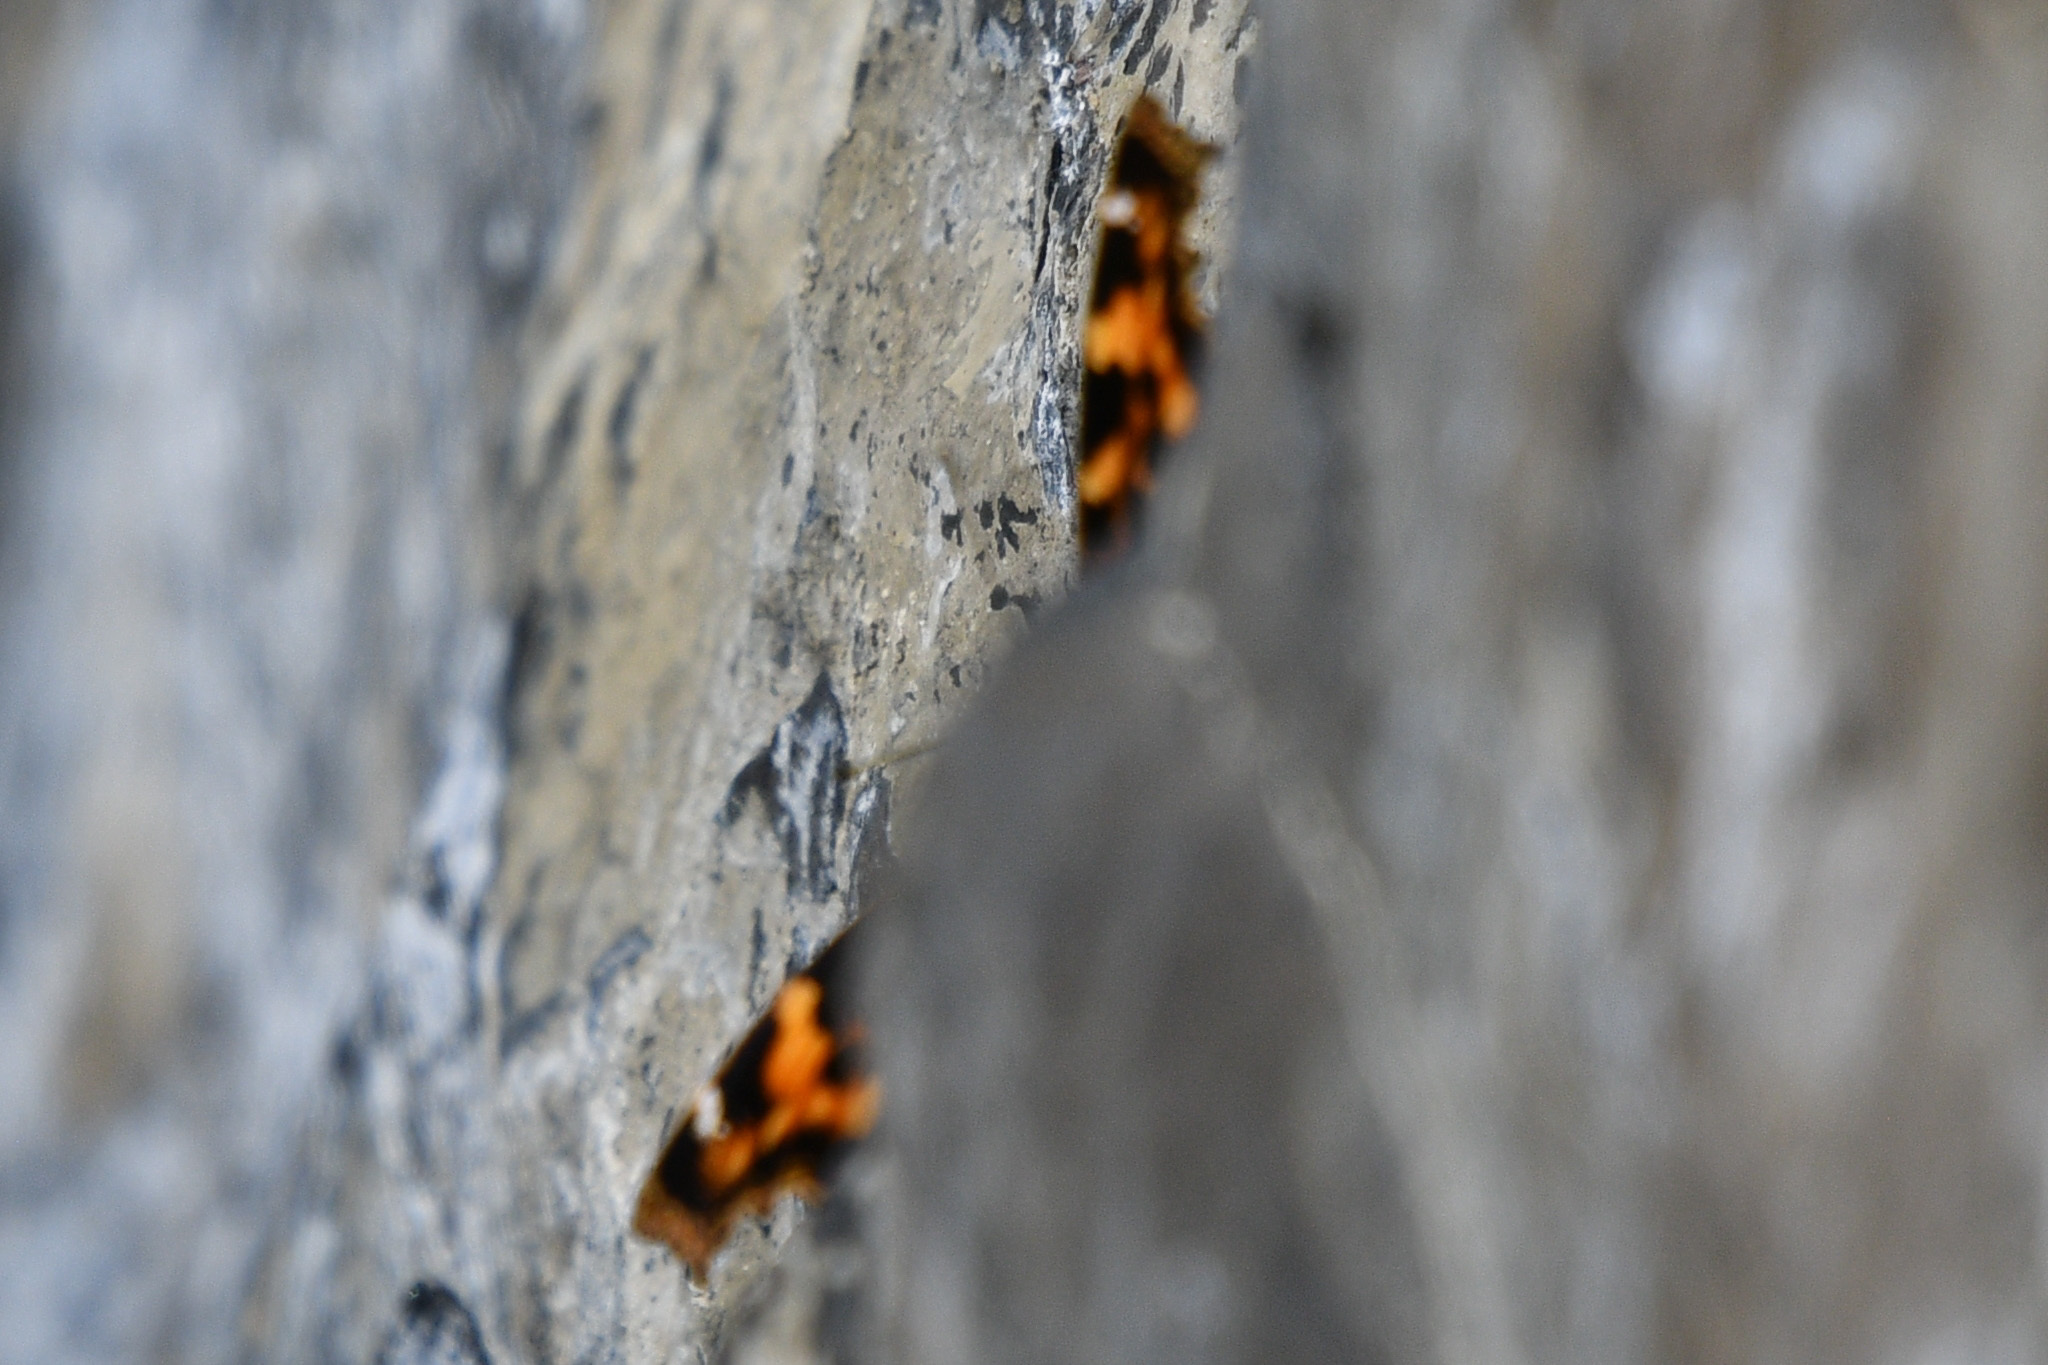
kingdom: Animalia
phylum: Arthropoda
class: Insecta
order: Lepidoptera
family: Nymphalidae
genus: Polygonia
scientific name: Polygonia vaualbum
